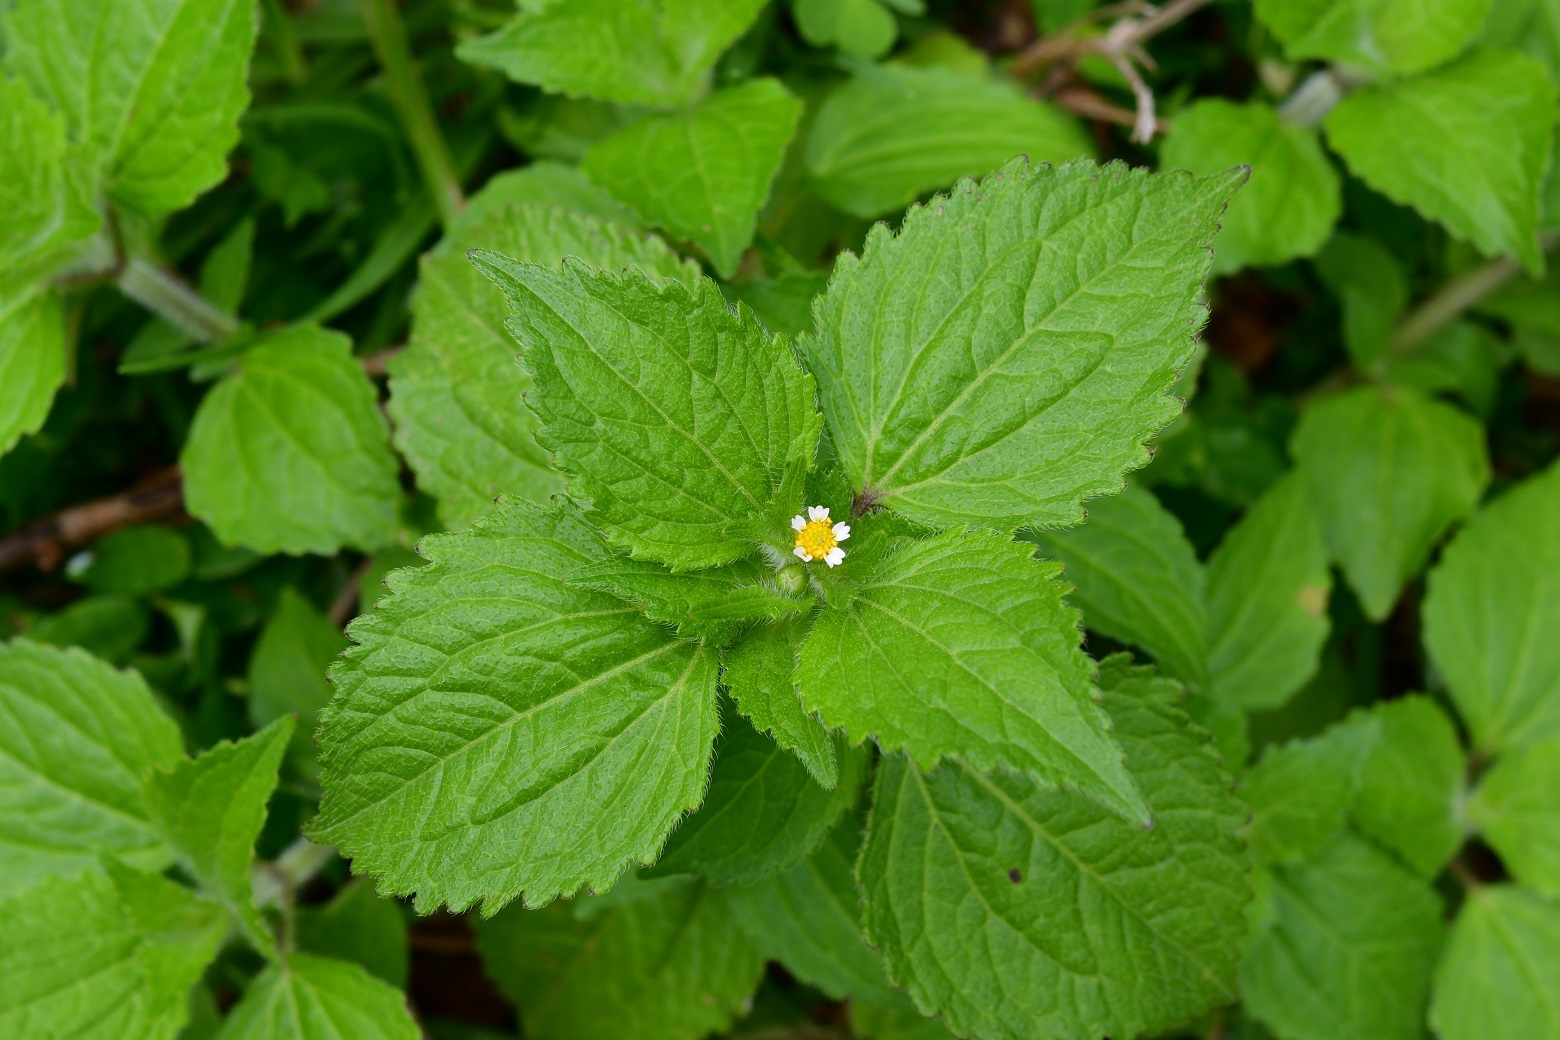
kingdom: Plantae
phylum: Tracheophyta
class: Magnoliopsida
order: Asterales
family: Asteraceae
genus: Galinsoga
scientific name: Galinsoga quadriradiata
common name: Shaggy soldier
